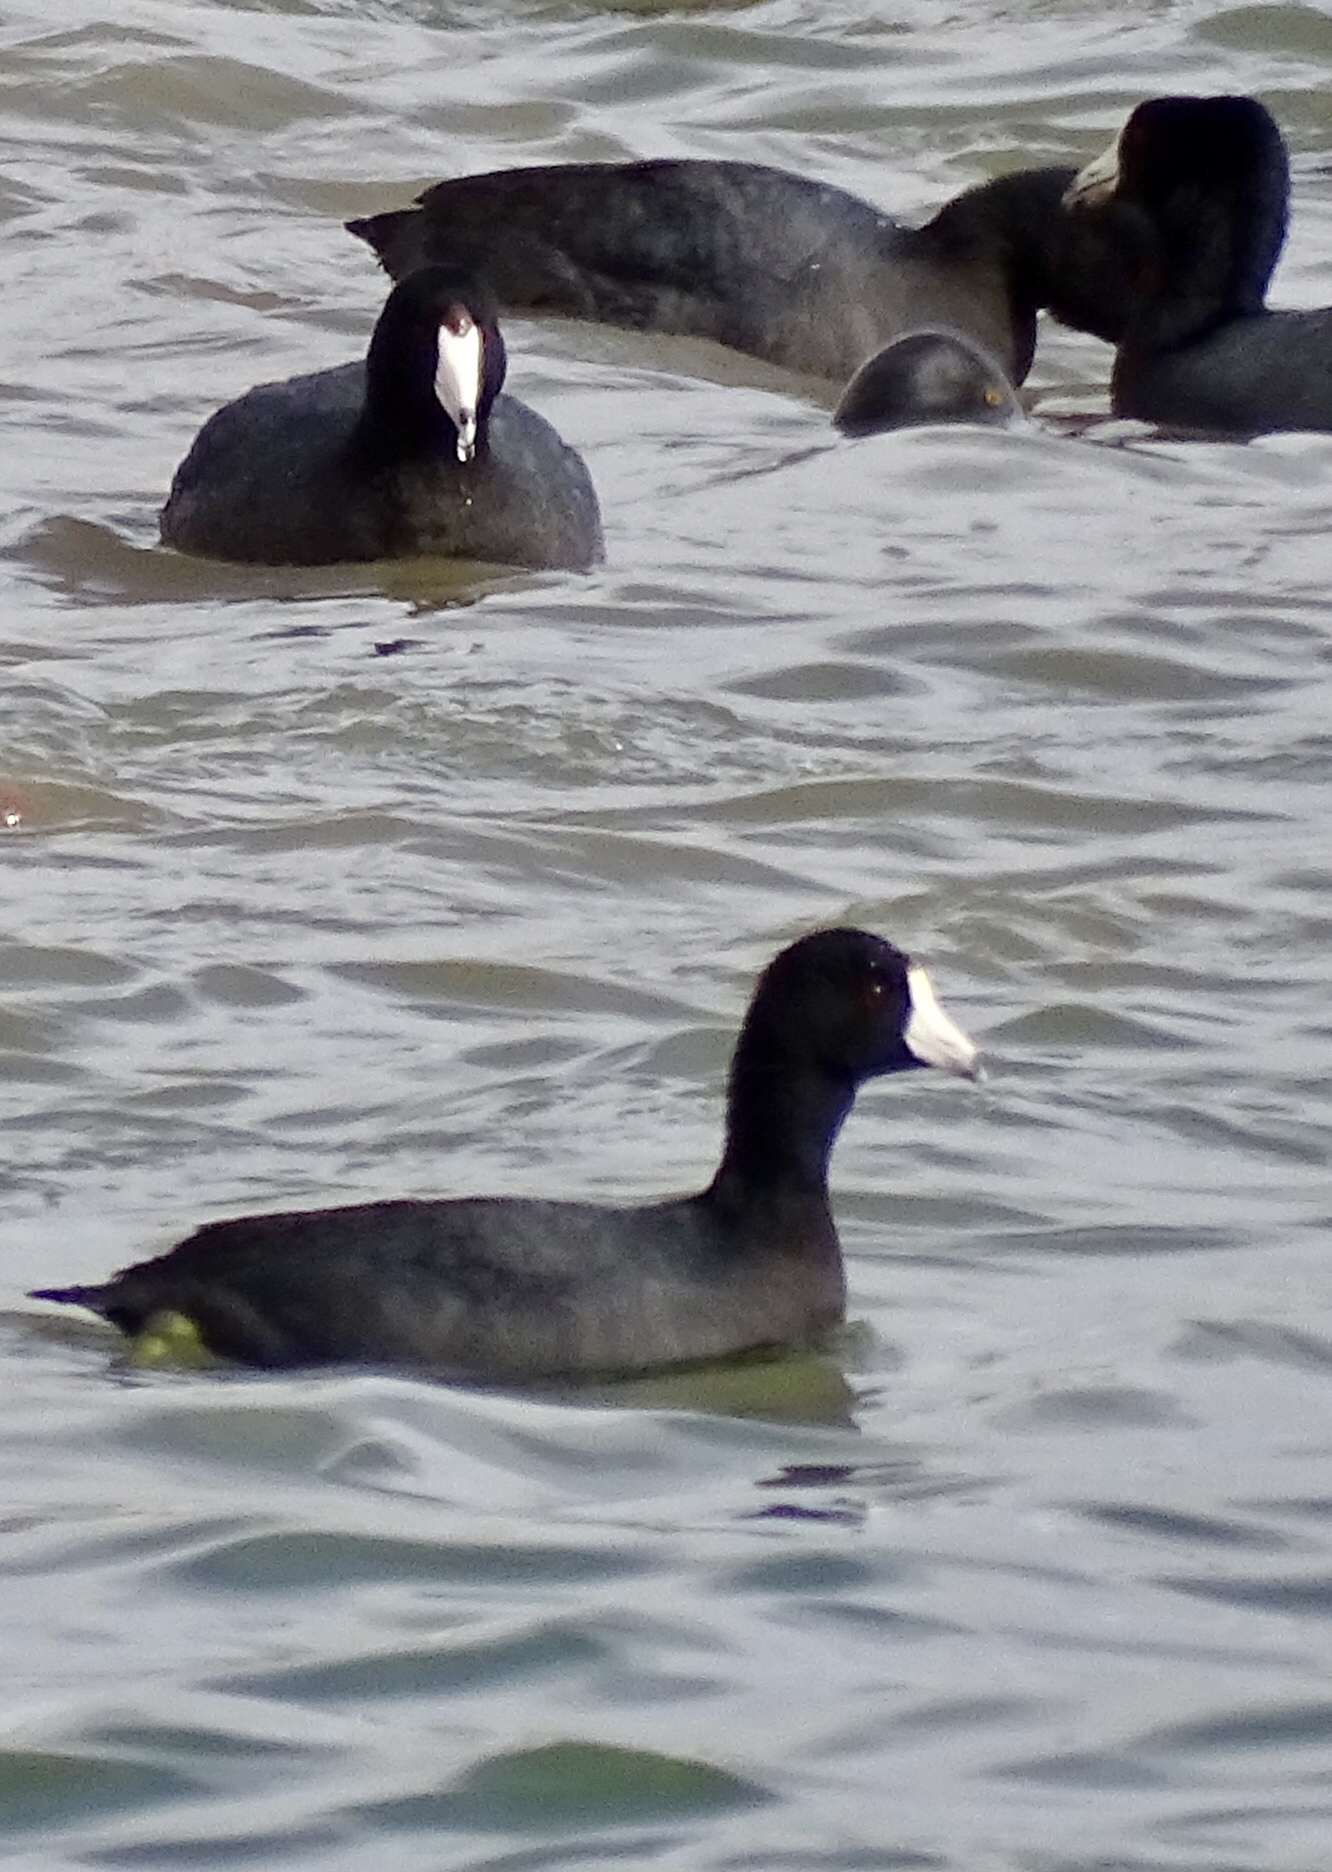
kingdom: Animalia
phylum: Chordata
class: Aves
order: Gruiformes
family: Rallidae
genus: Fulica
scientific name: Fulica americana
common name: American coot
